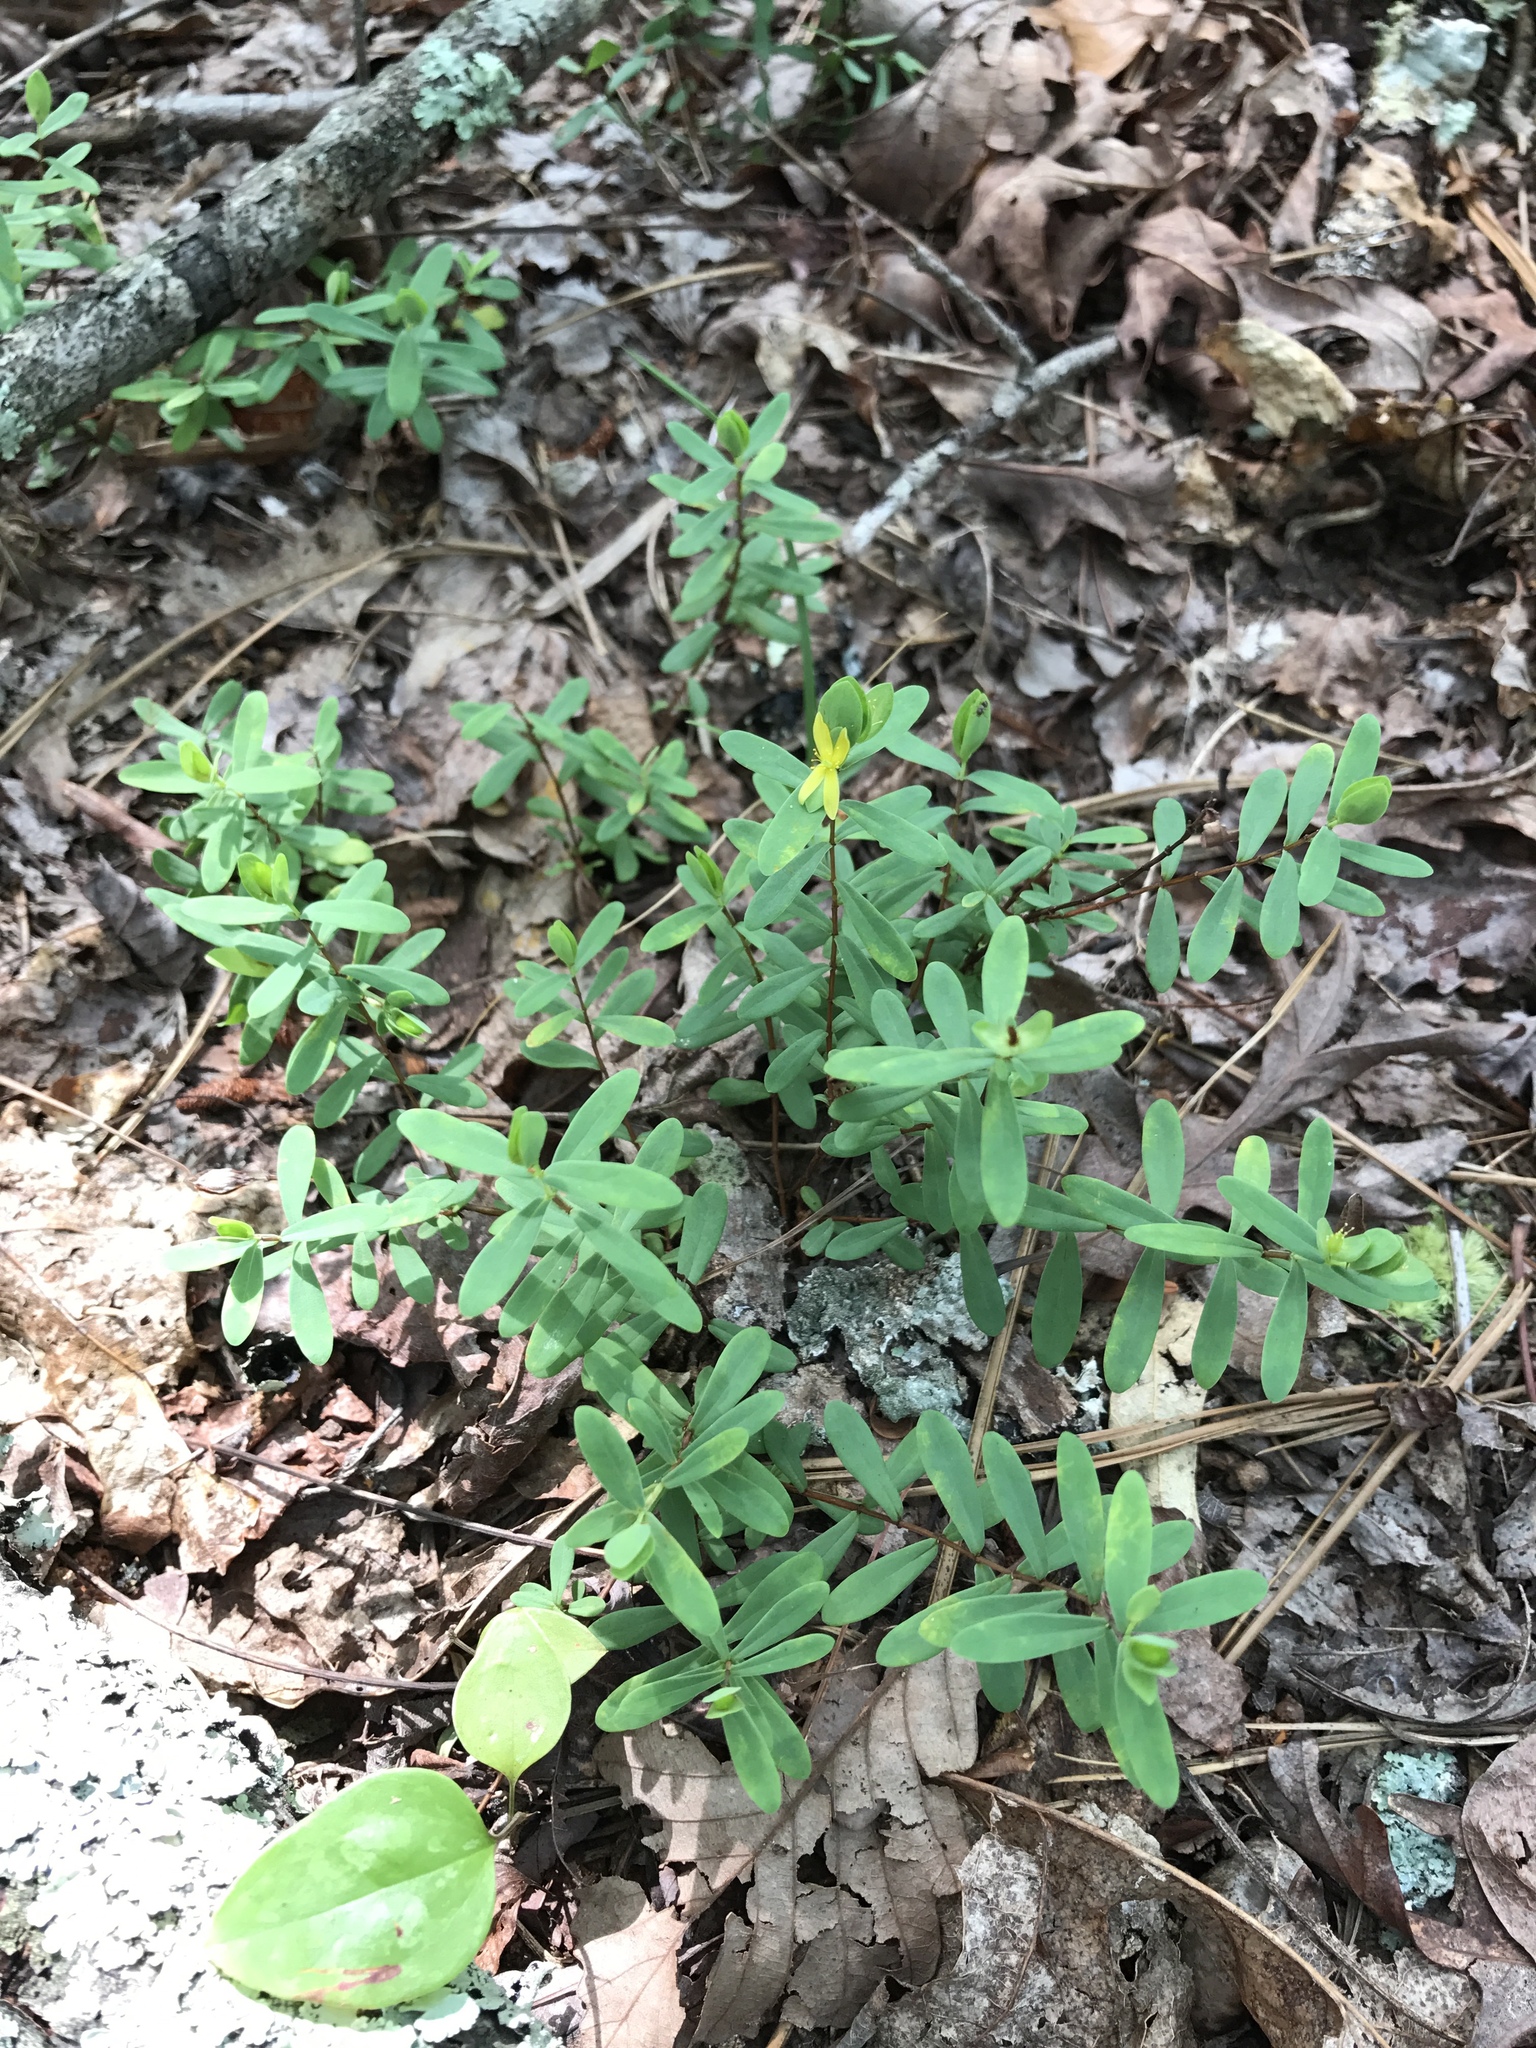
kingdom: Plantae
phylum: Tracheophyta
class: Magnoliopsida
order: Malpighiales
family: Hypericaceae
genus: Hypericum
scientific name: Hypericum hypericoides
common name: St. andrew's cross
